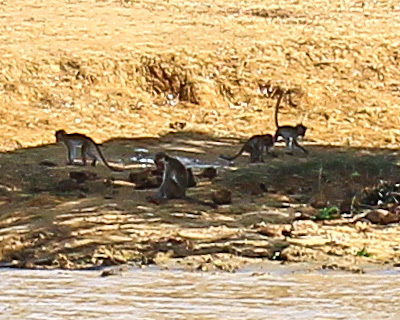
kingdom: Animalia
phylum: Chordata
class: Mammalia
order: Primates
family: Cercopithecidae
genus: Macaca
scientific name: Macaca sinica
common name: Toque macaque
